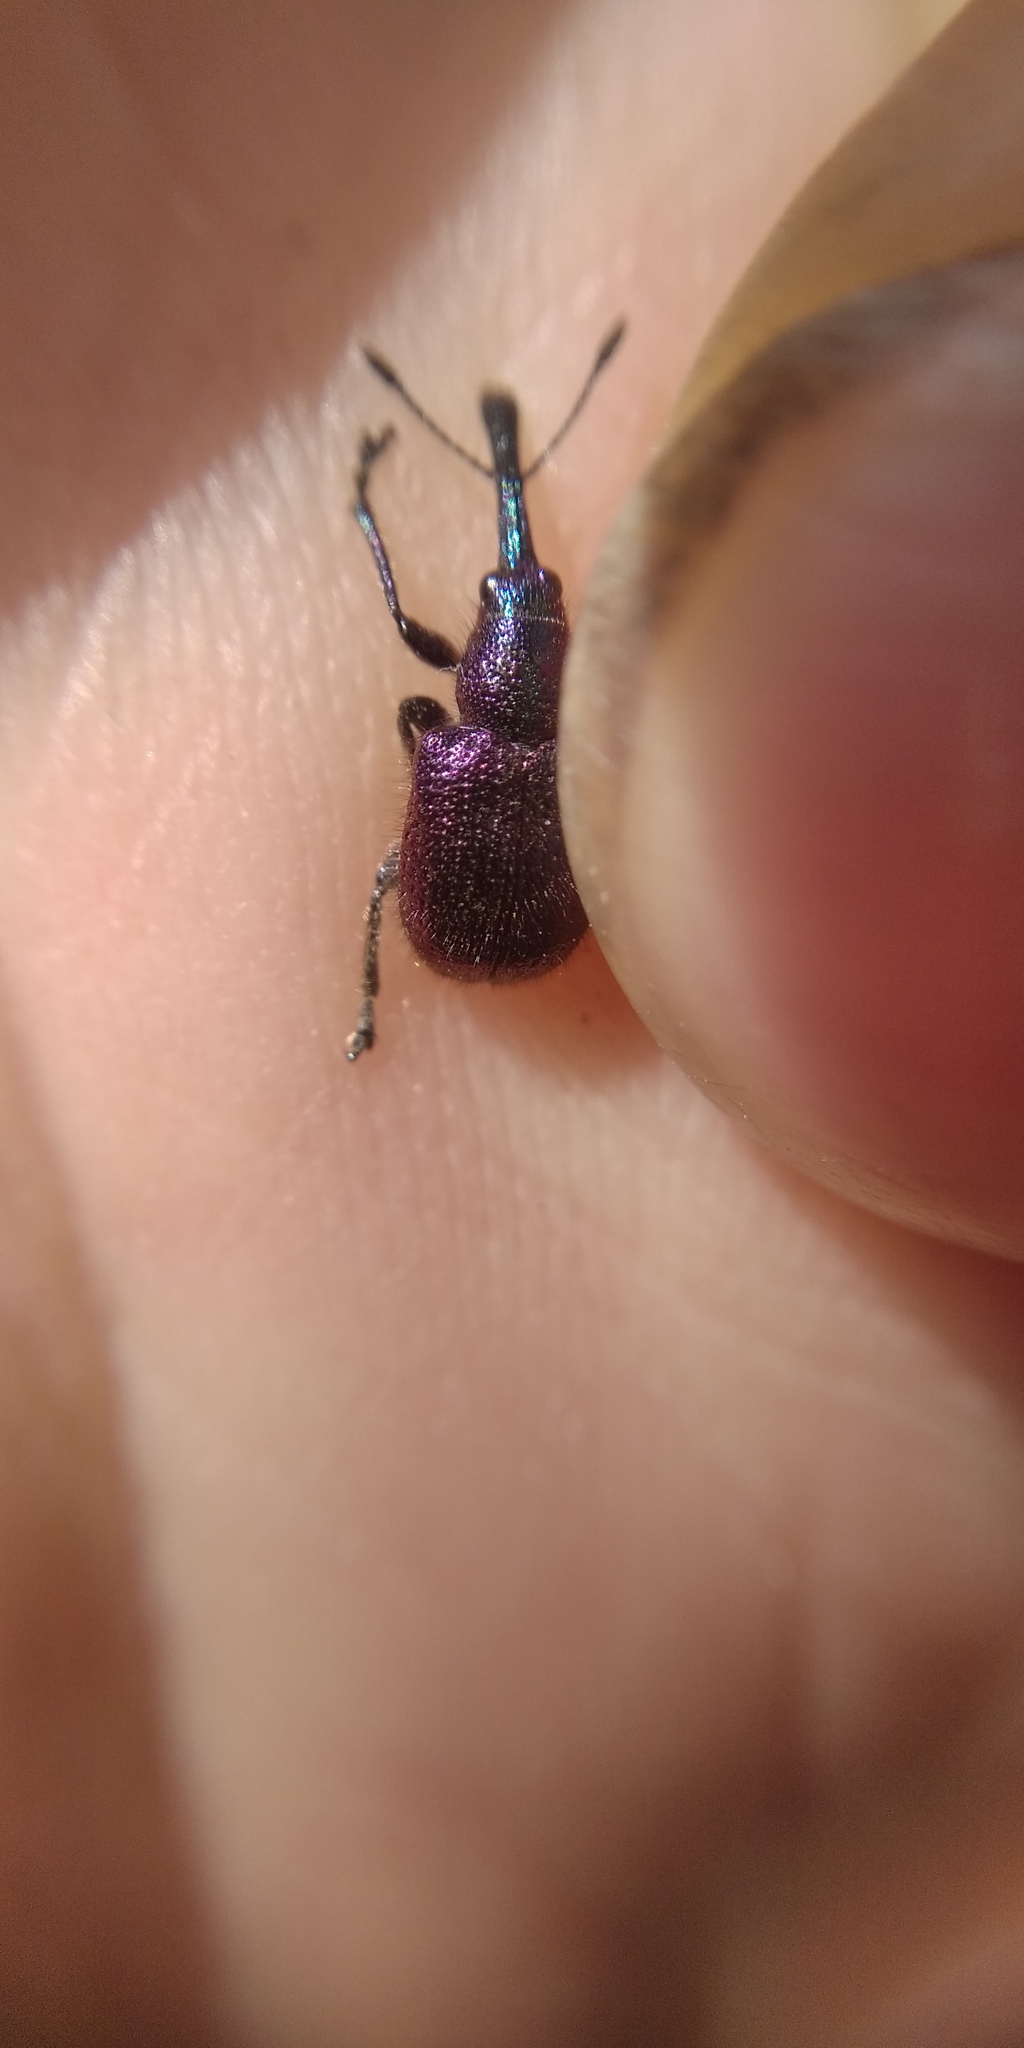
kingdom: Animalia
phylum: Arthropoda
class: Insecta
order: Coleoptera
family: Attelabidae
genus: Rhynchites
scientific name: Rhynchites bacchus
